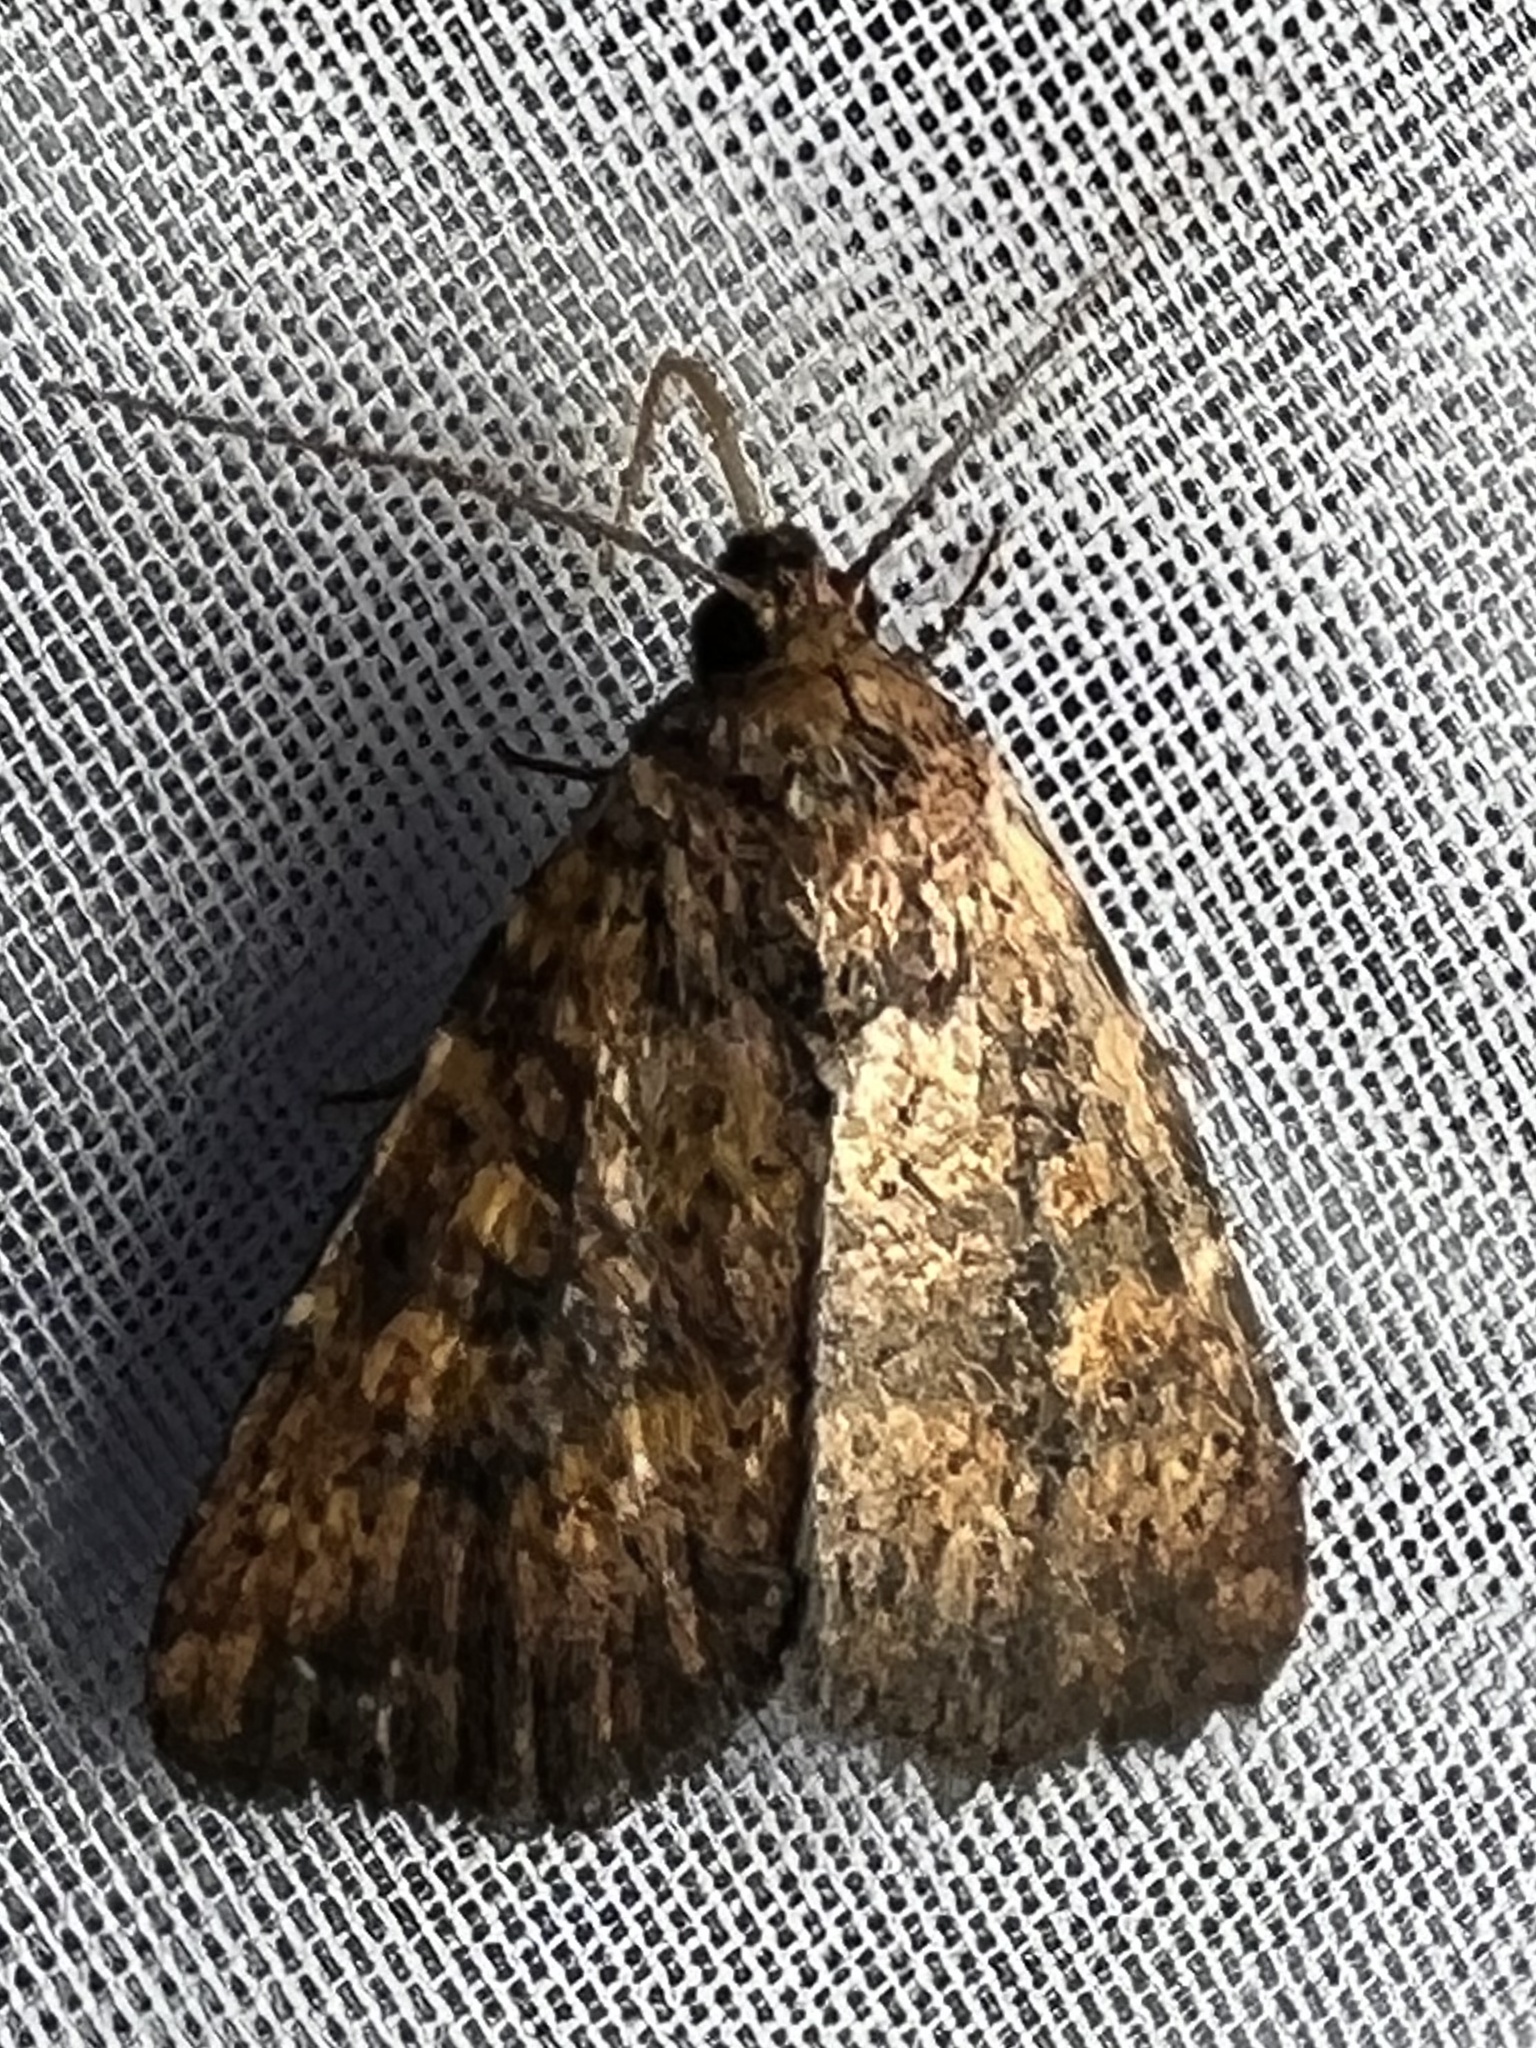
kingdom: Animalia
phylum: Arthropoda
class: Insecta
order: Lepidoptera
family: Noctuidae
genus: Perigea
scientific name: Perigea xanthioides
